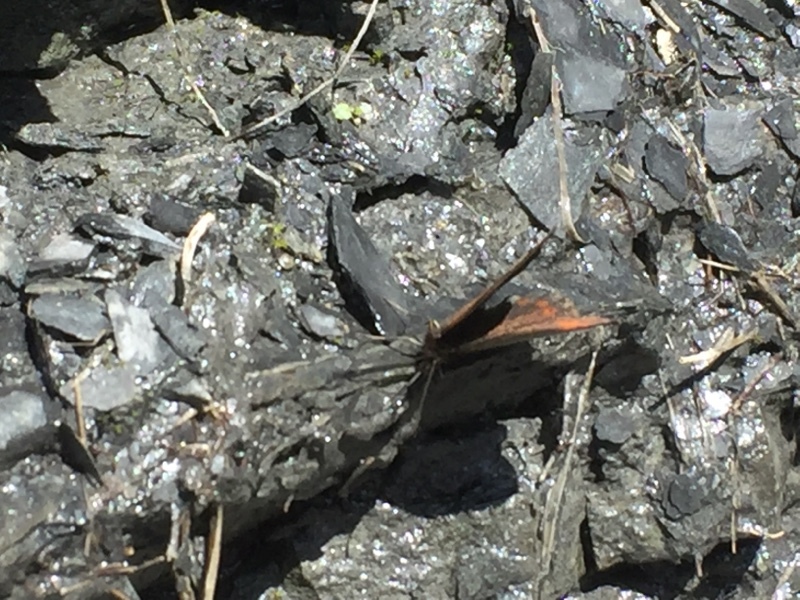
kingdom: Animalia
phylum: Arthropoda
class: Insecta
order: Lepidoptera
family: Nymphalidae
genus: Erebia
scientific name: Erebia aethiops
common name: Scotch argus
